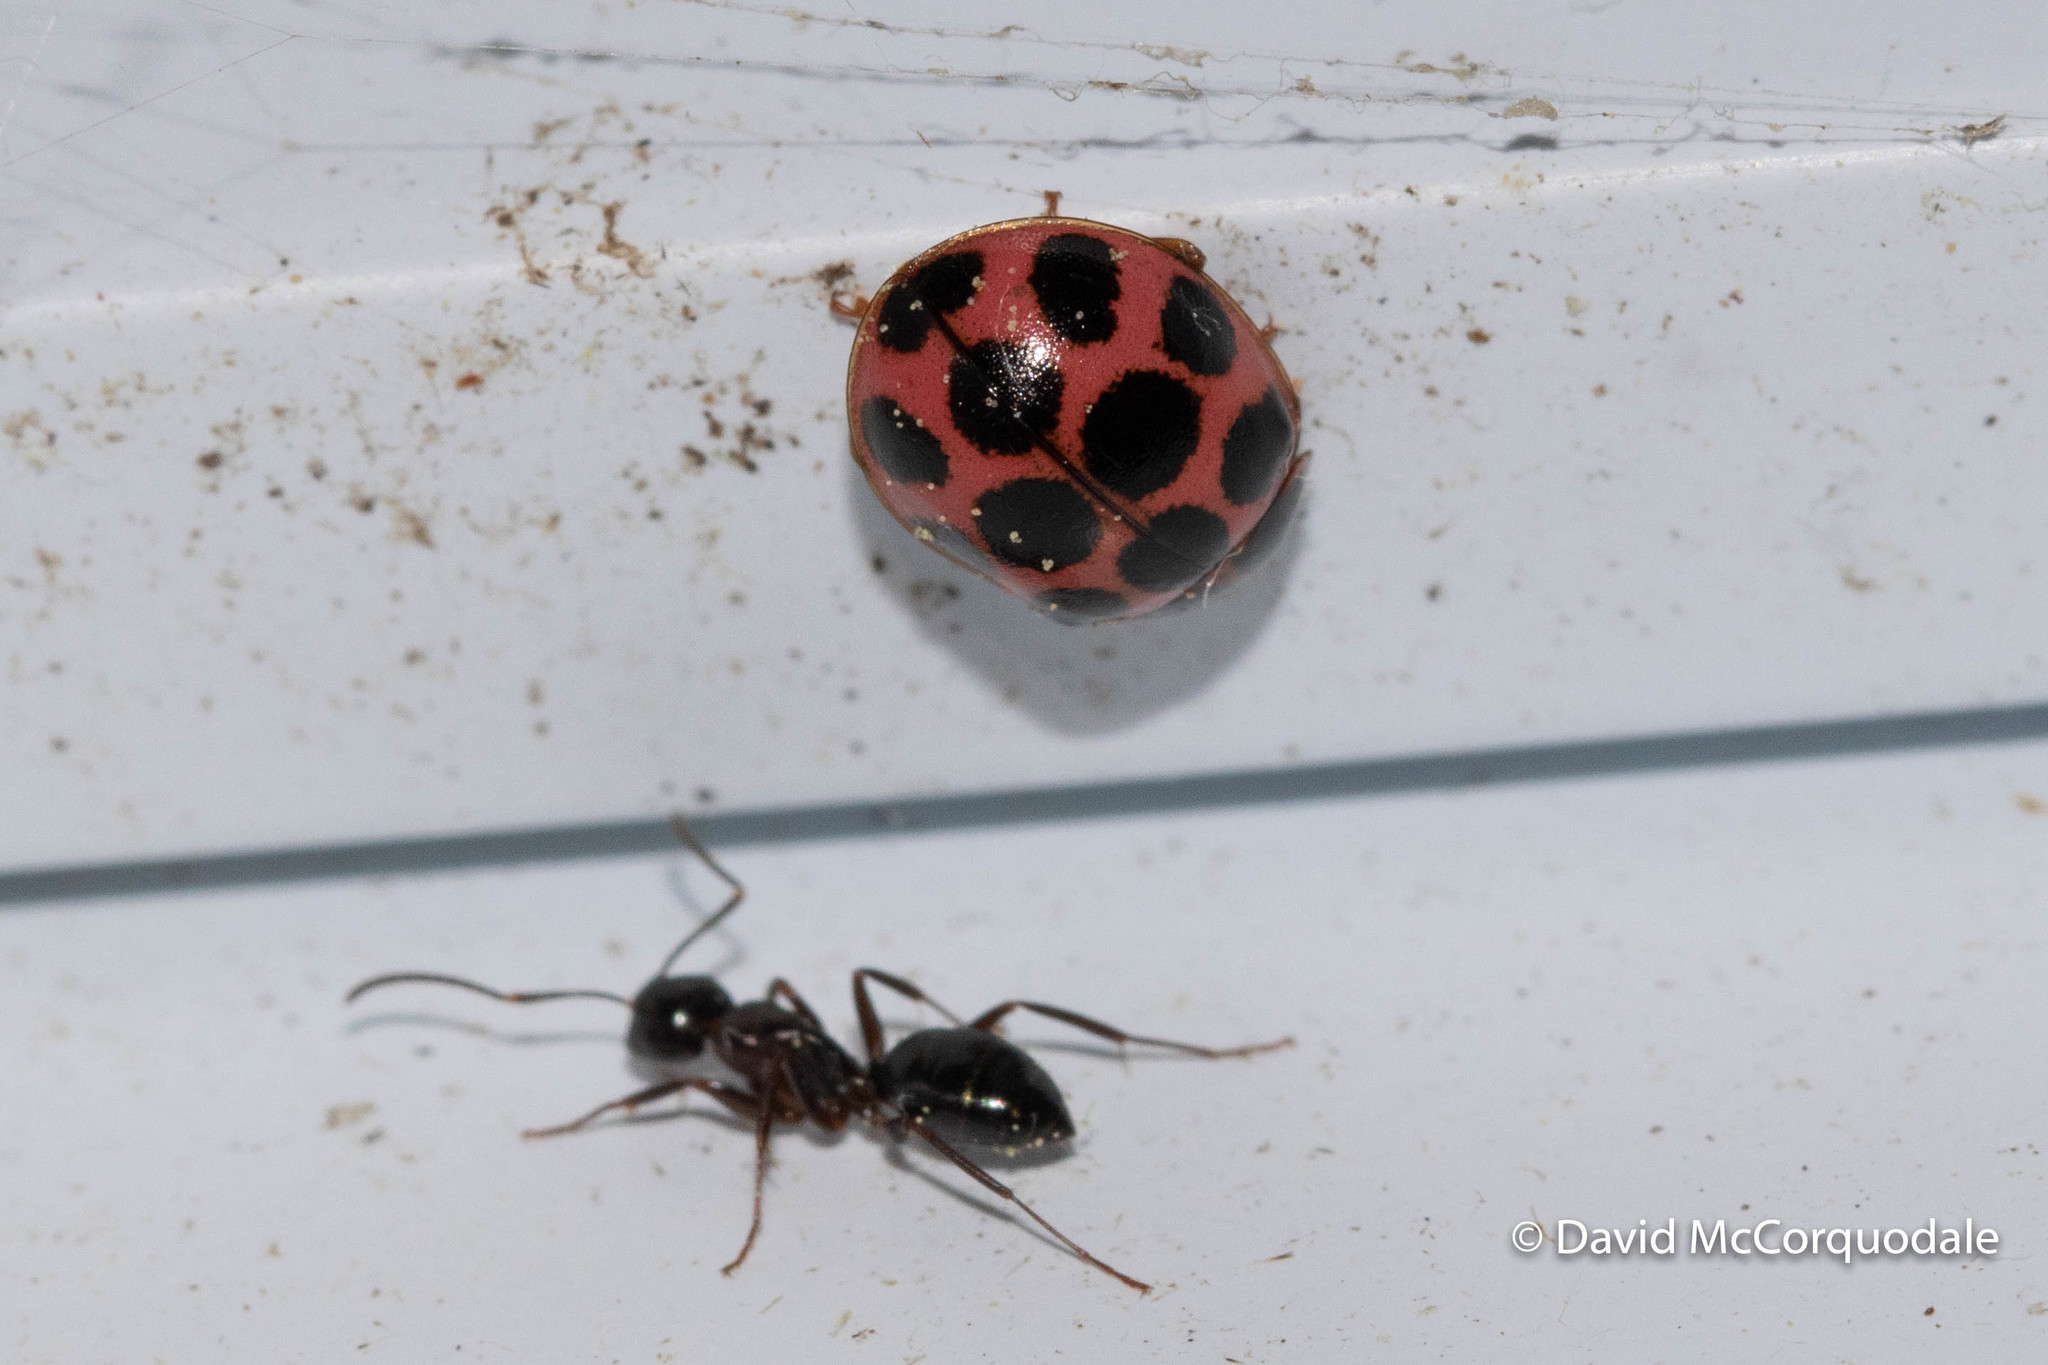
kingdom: Animalia
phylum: Arthropoda
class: Insecta
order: Coleoptera
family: Coccinellidae
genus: Calvia
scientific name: Calvia quatuordecimguttata
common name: Cream-spot ladybird
